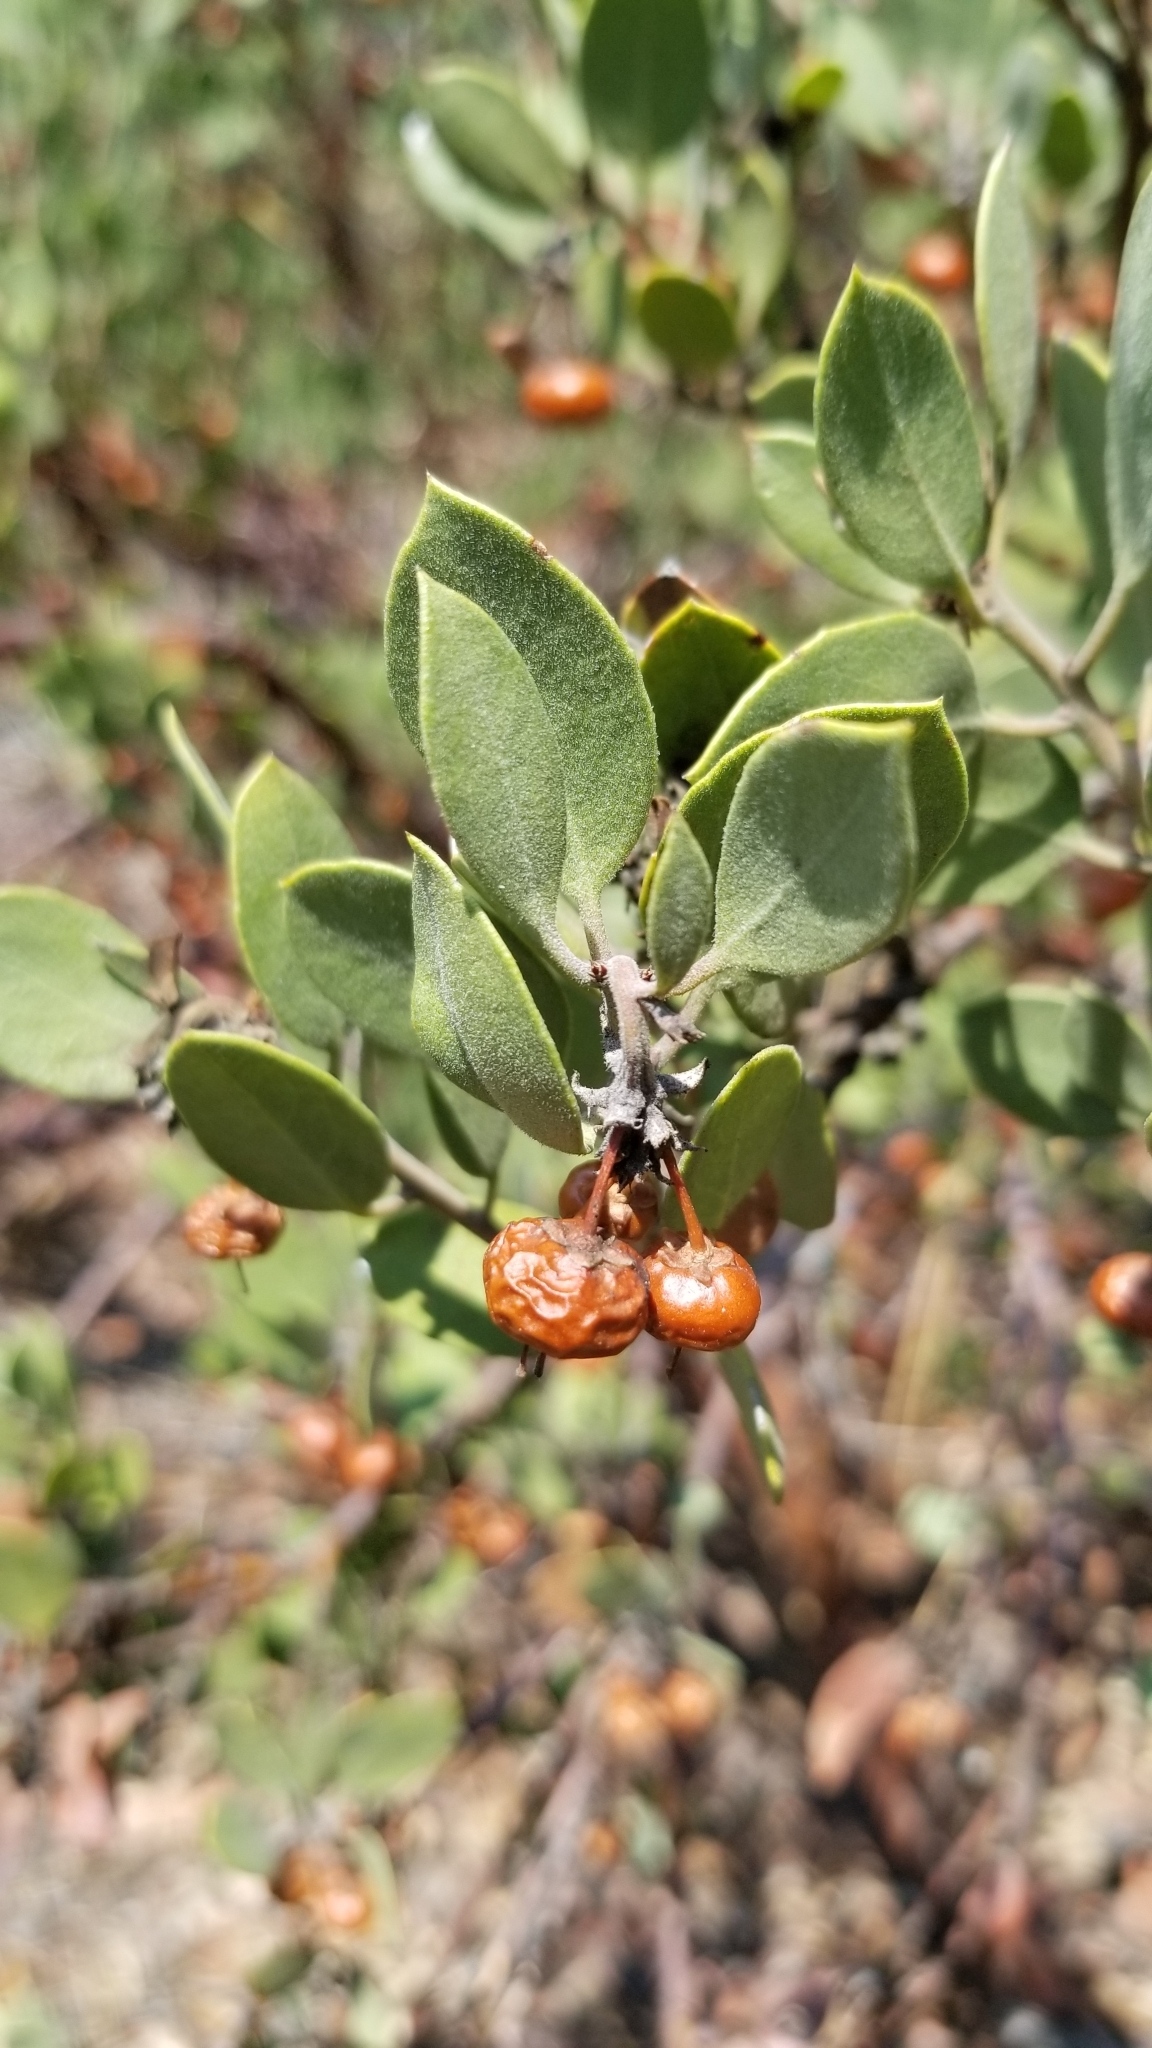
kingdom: Plantae
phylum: Tracheophyta
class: Magnoliopsida
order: Ericales
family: Ericaceae
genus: Arctostaphylos
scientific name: Arctostaphylos pungens
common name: Mexican manzanita
